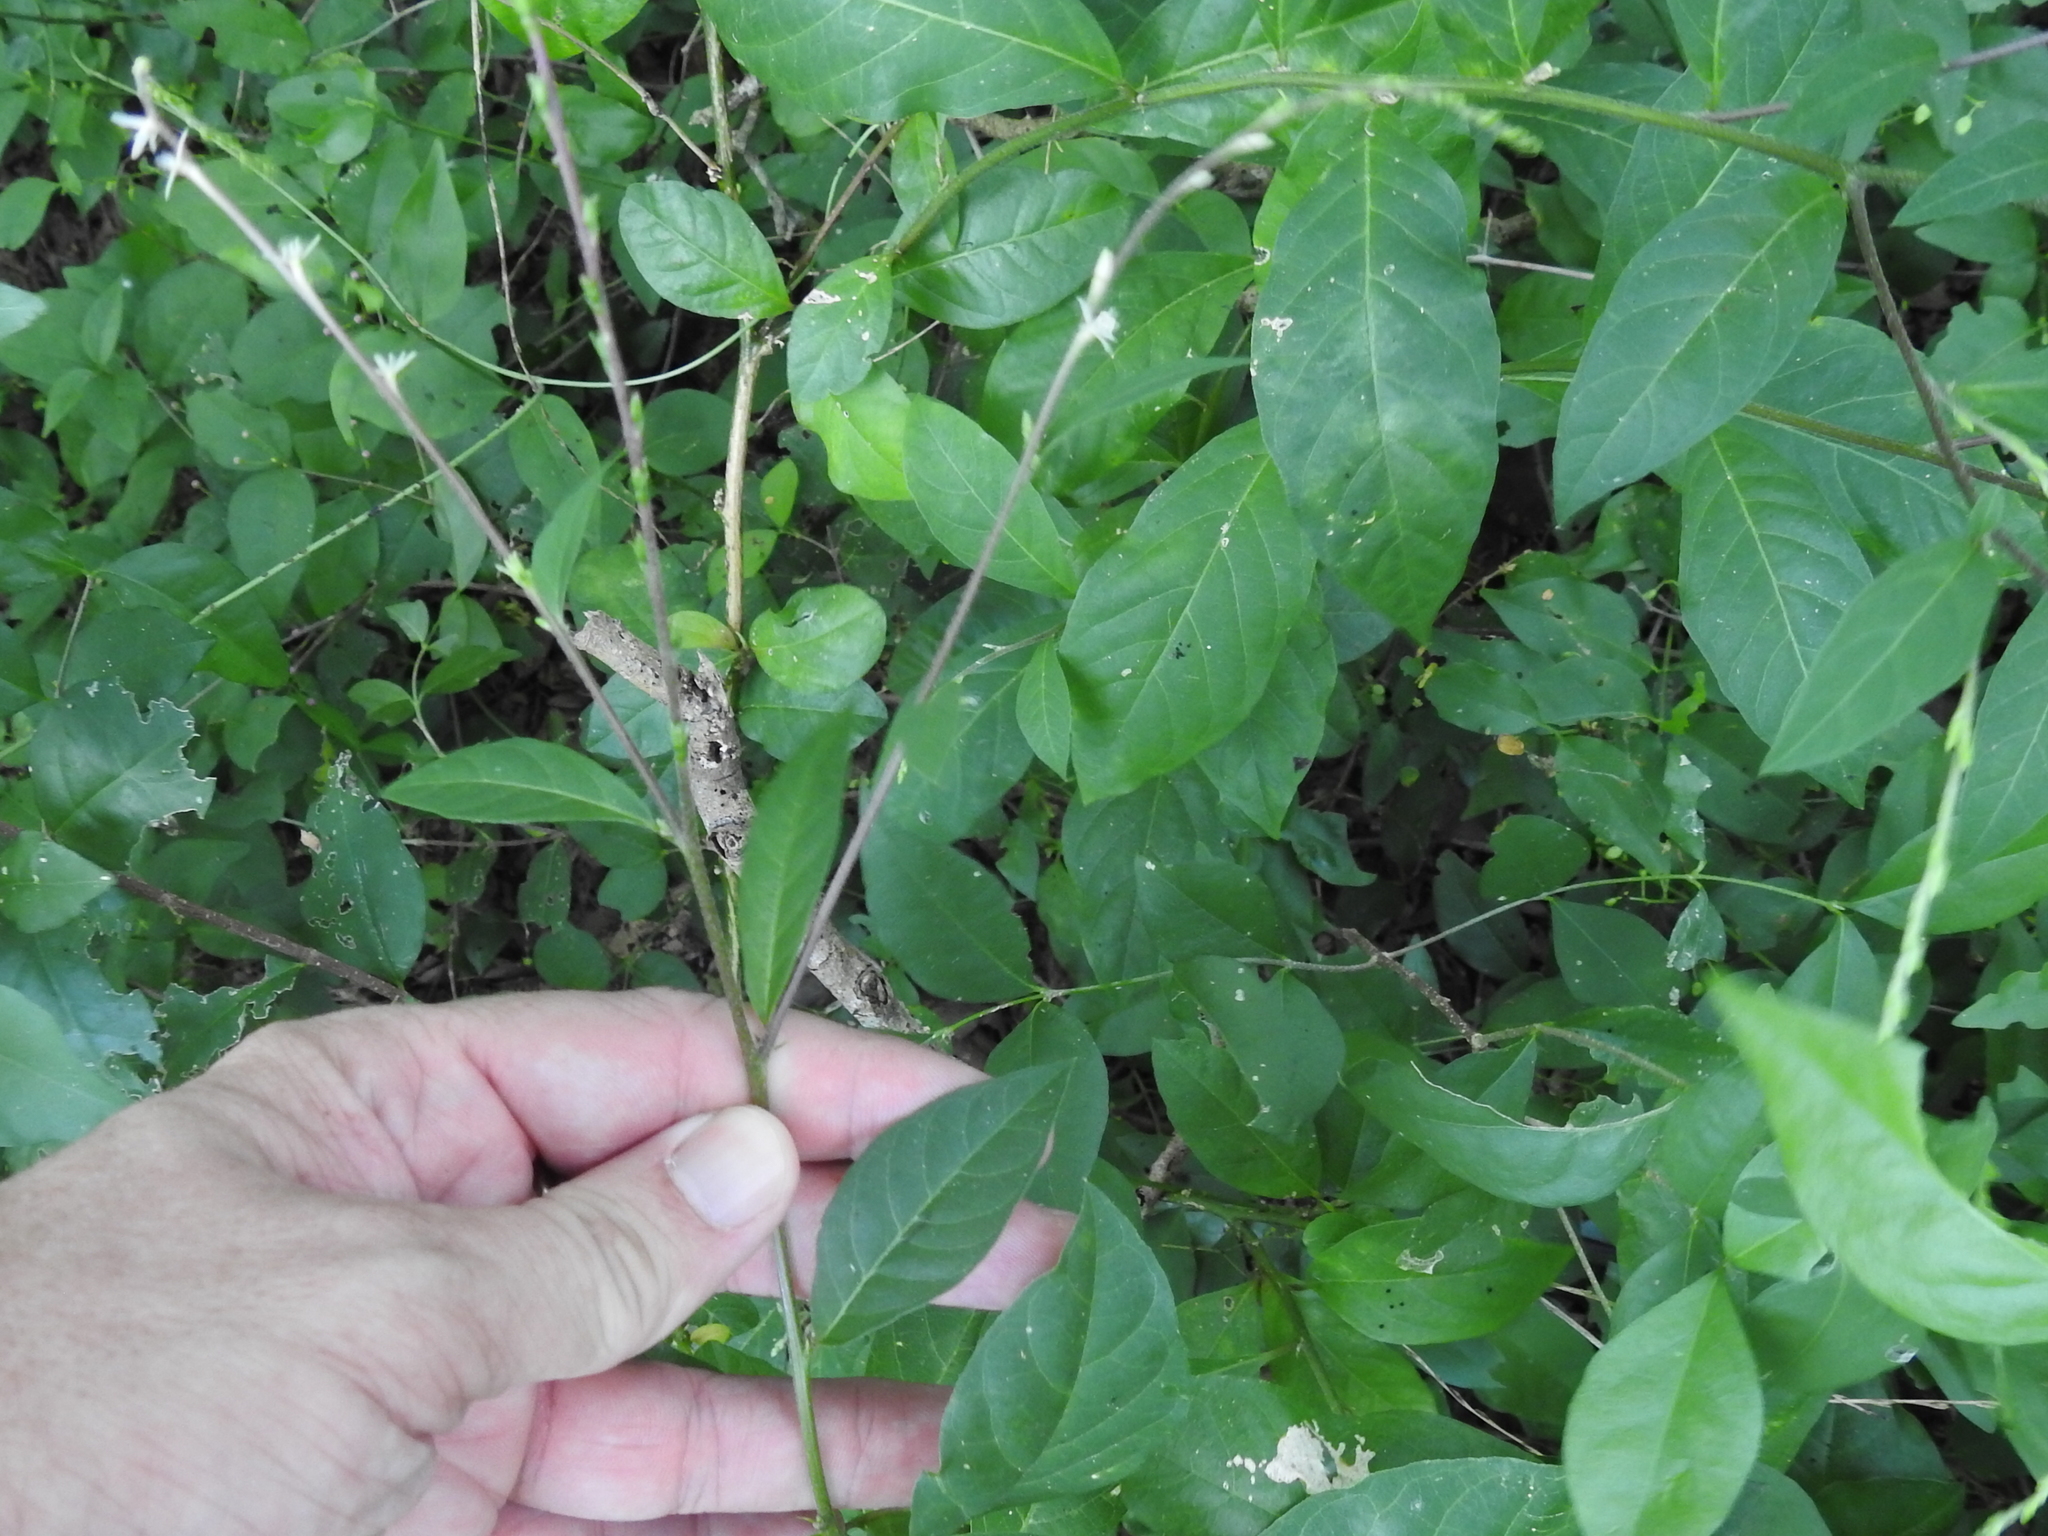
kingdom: Plantae
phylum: Tracheophyta
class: Magnoliopsida
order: Caryophyllales
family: Phytolaccaceae
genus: Petiveria
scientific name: Petiveria alliacea
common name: Garlicweed
